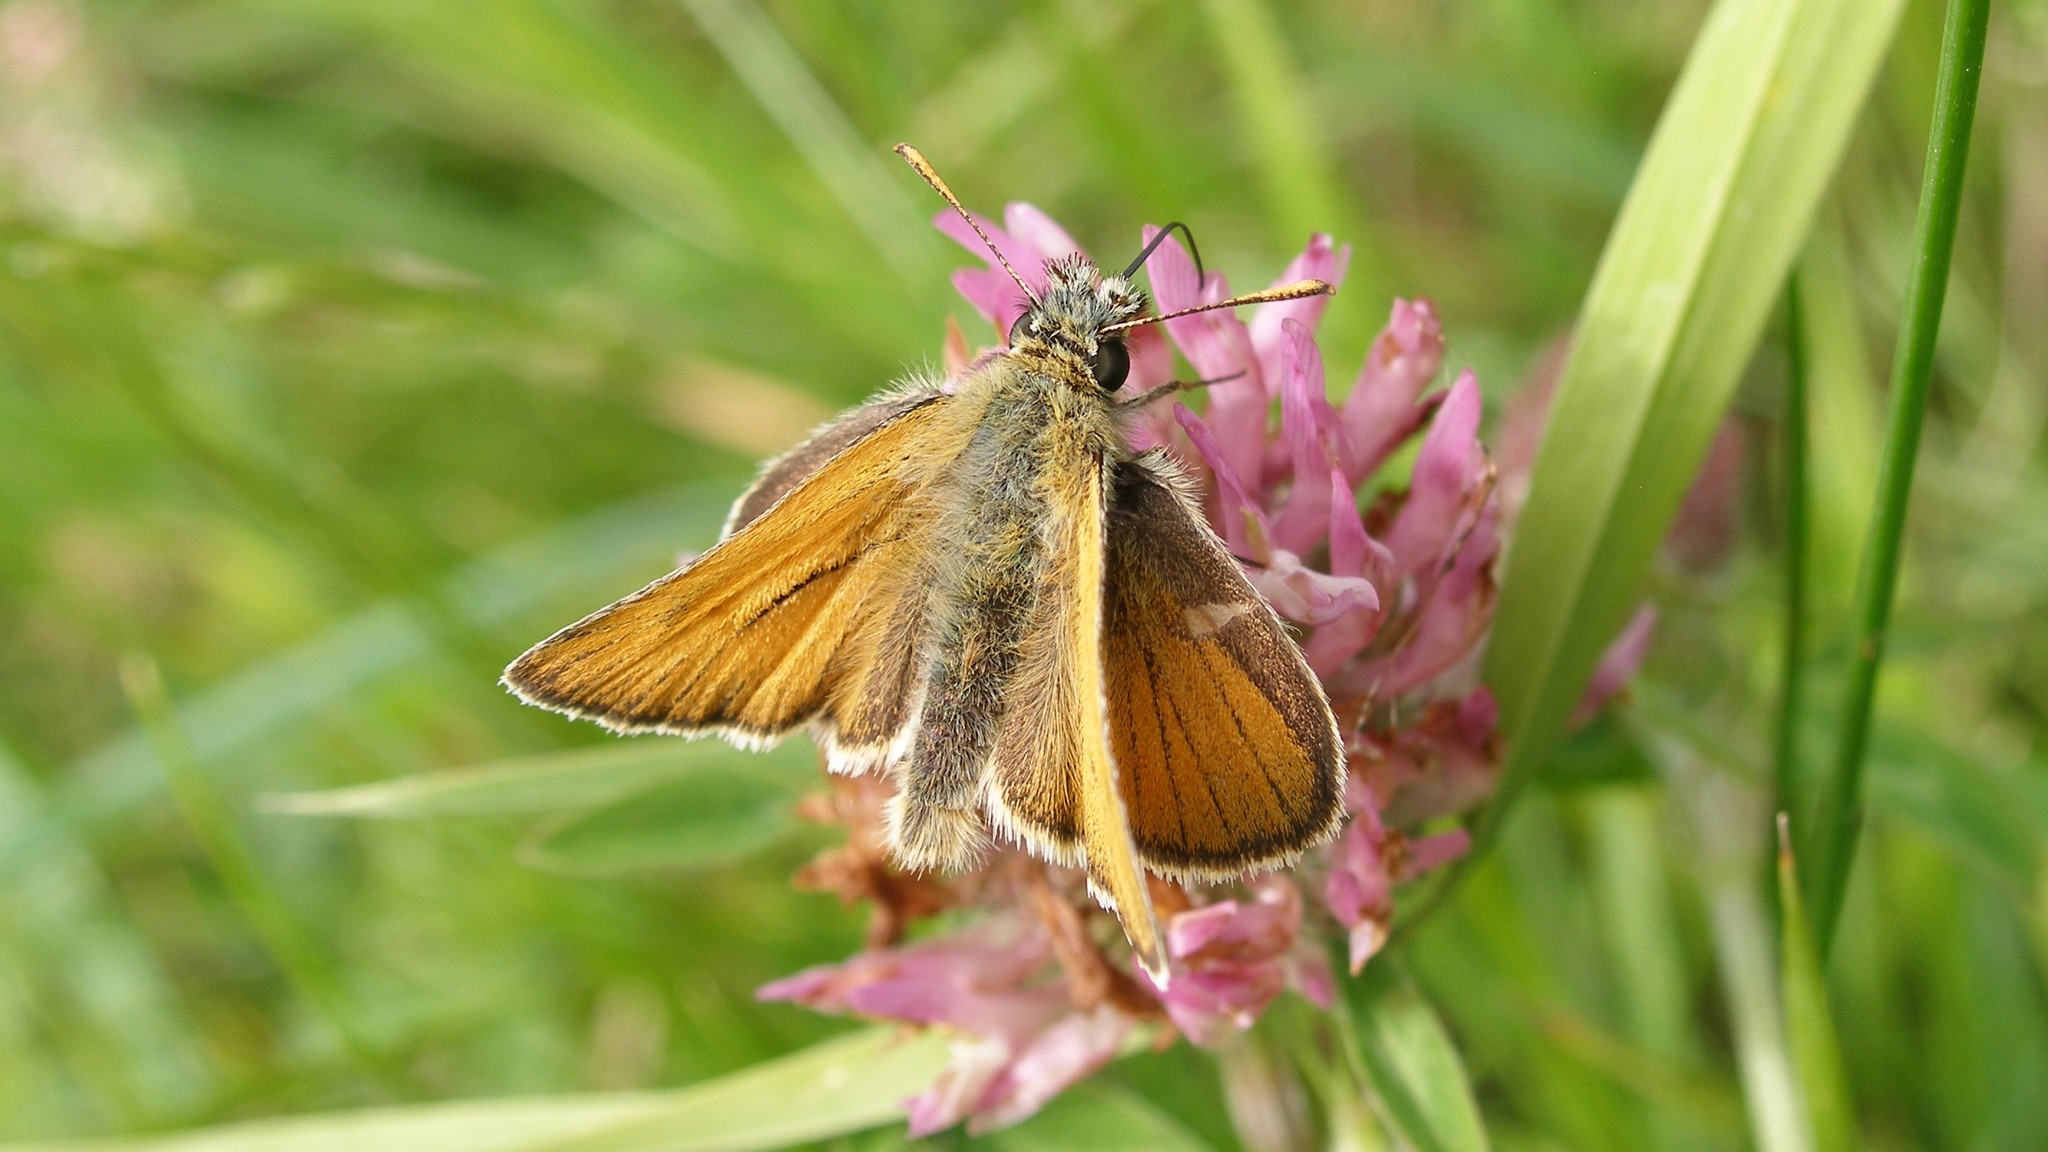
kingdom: Animalia
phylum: Arthropoda
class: Insecta
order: Lepidoptera
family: Hesperiidae
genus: Thymelicus
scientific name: Thymelicus sylvestris
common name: Small skipper
